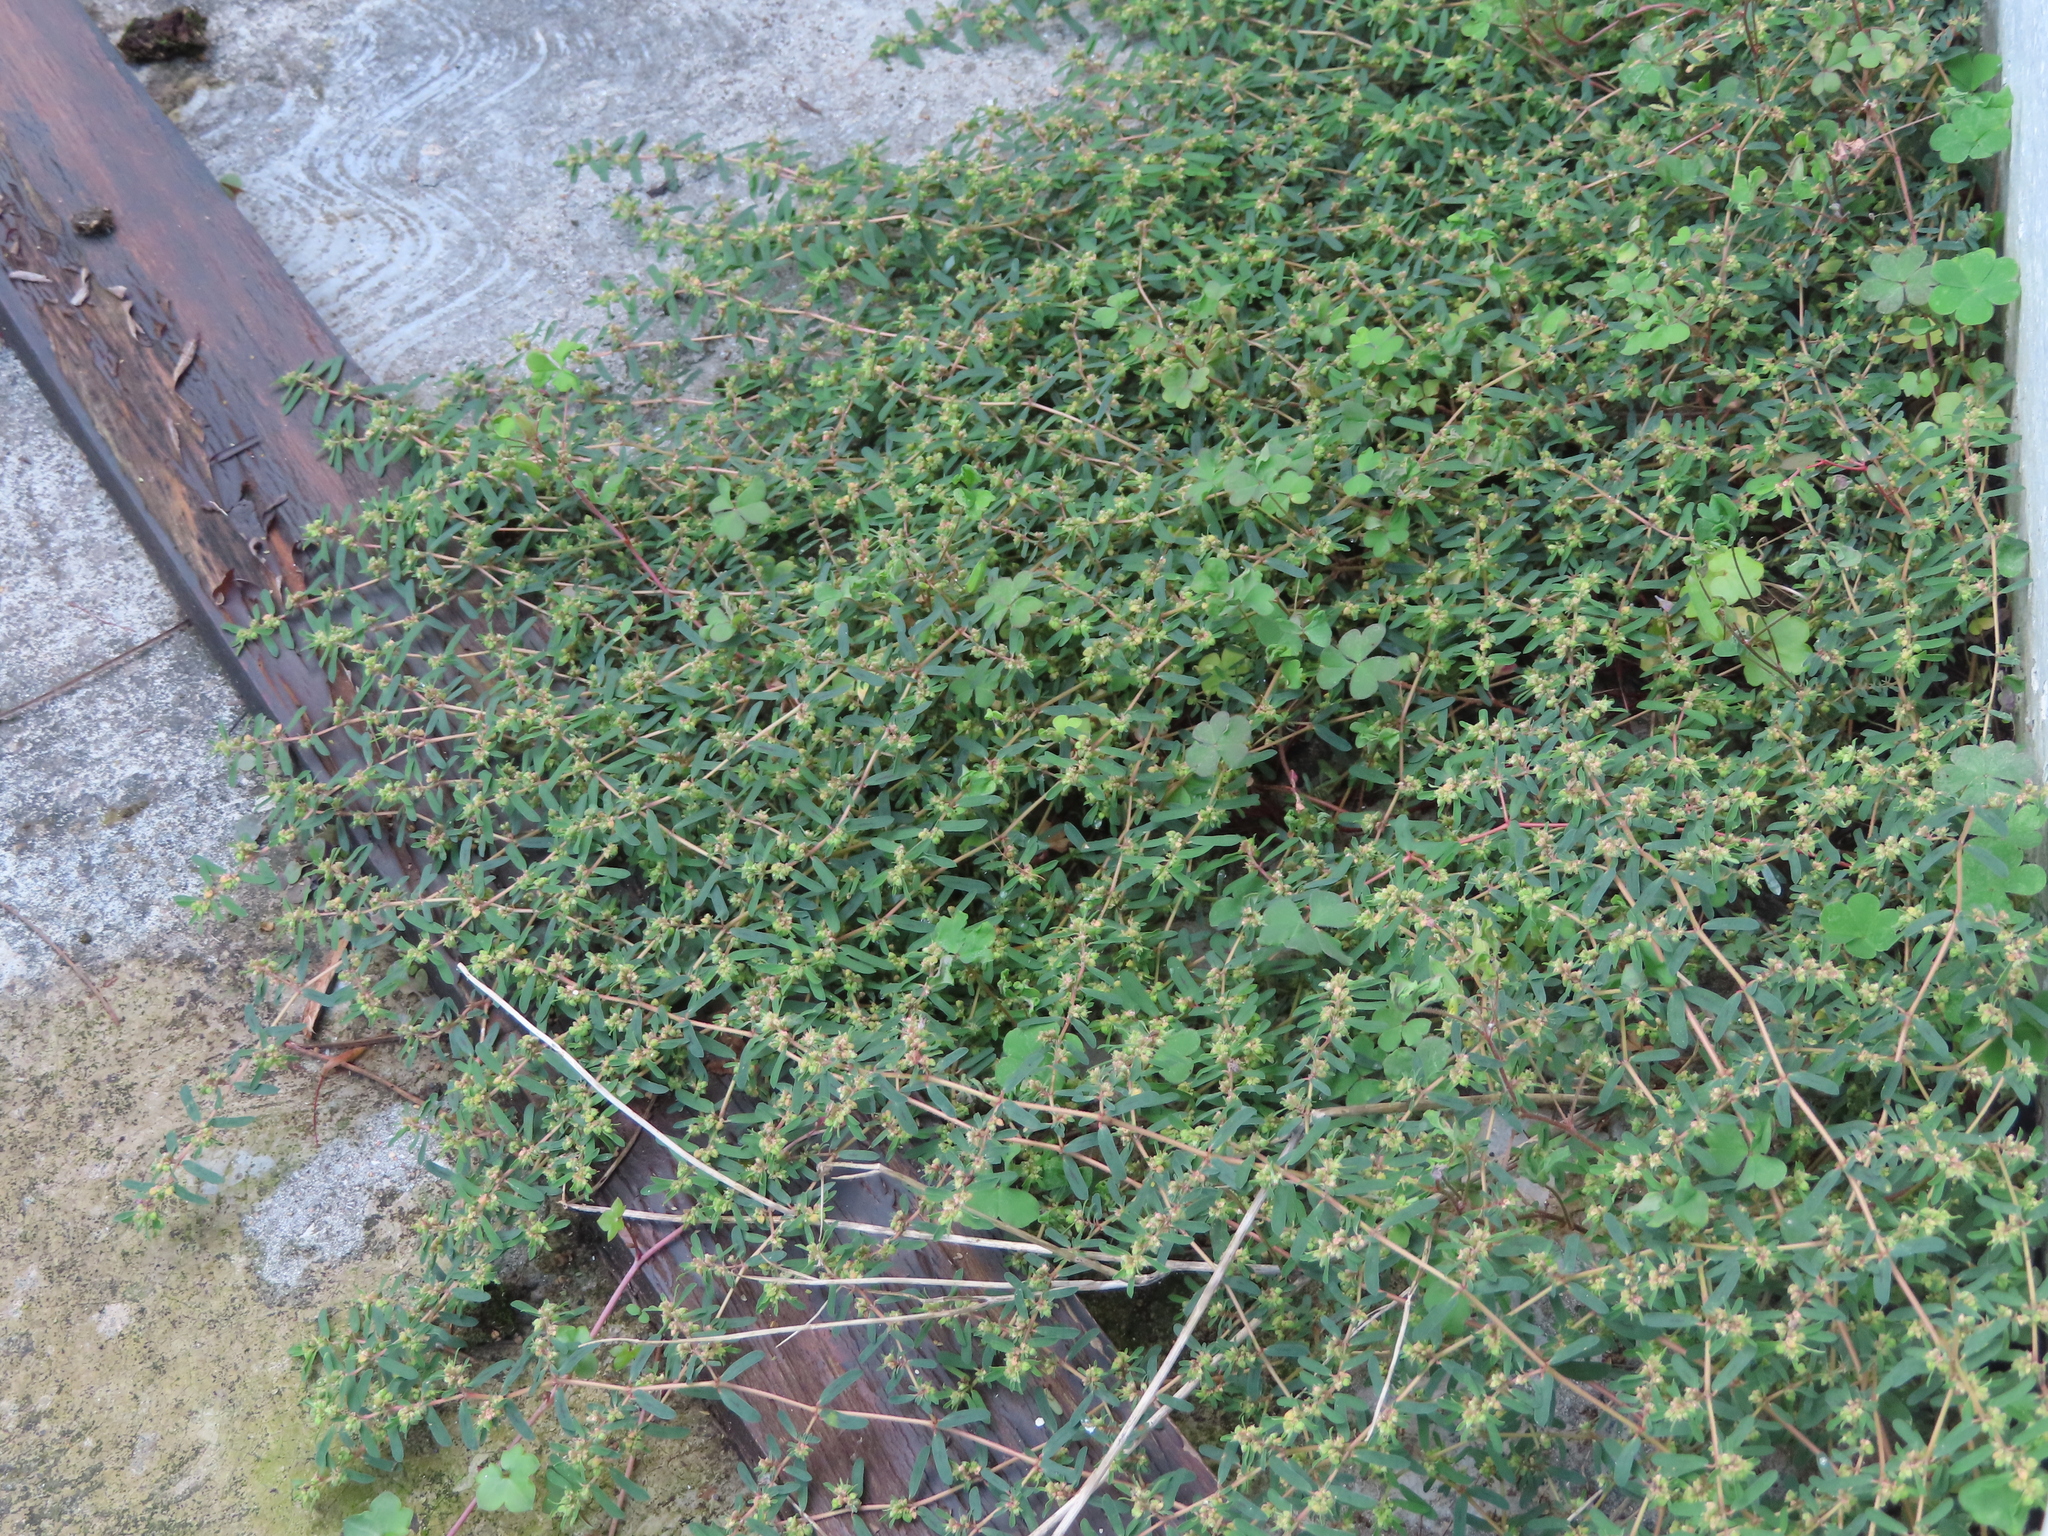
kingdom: Plantae
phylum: Tracheophyta
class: Magnoliopsida
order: Malpighiales
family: Euphorbiaceae
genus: Euphorbia
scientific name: Euphorbia maculata
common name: Spotted spurge
